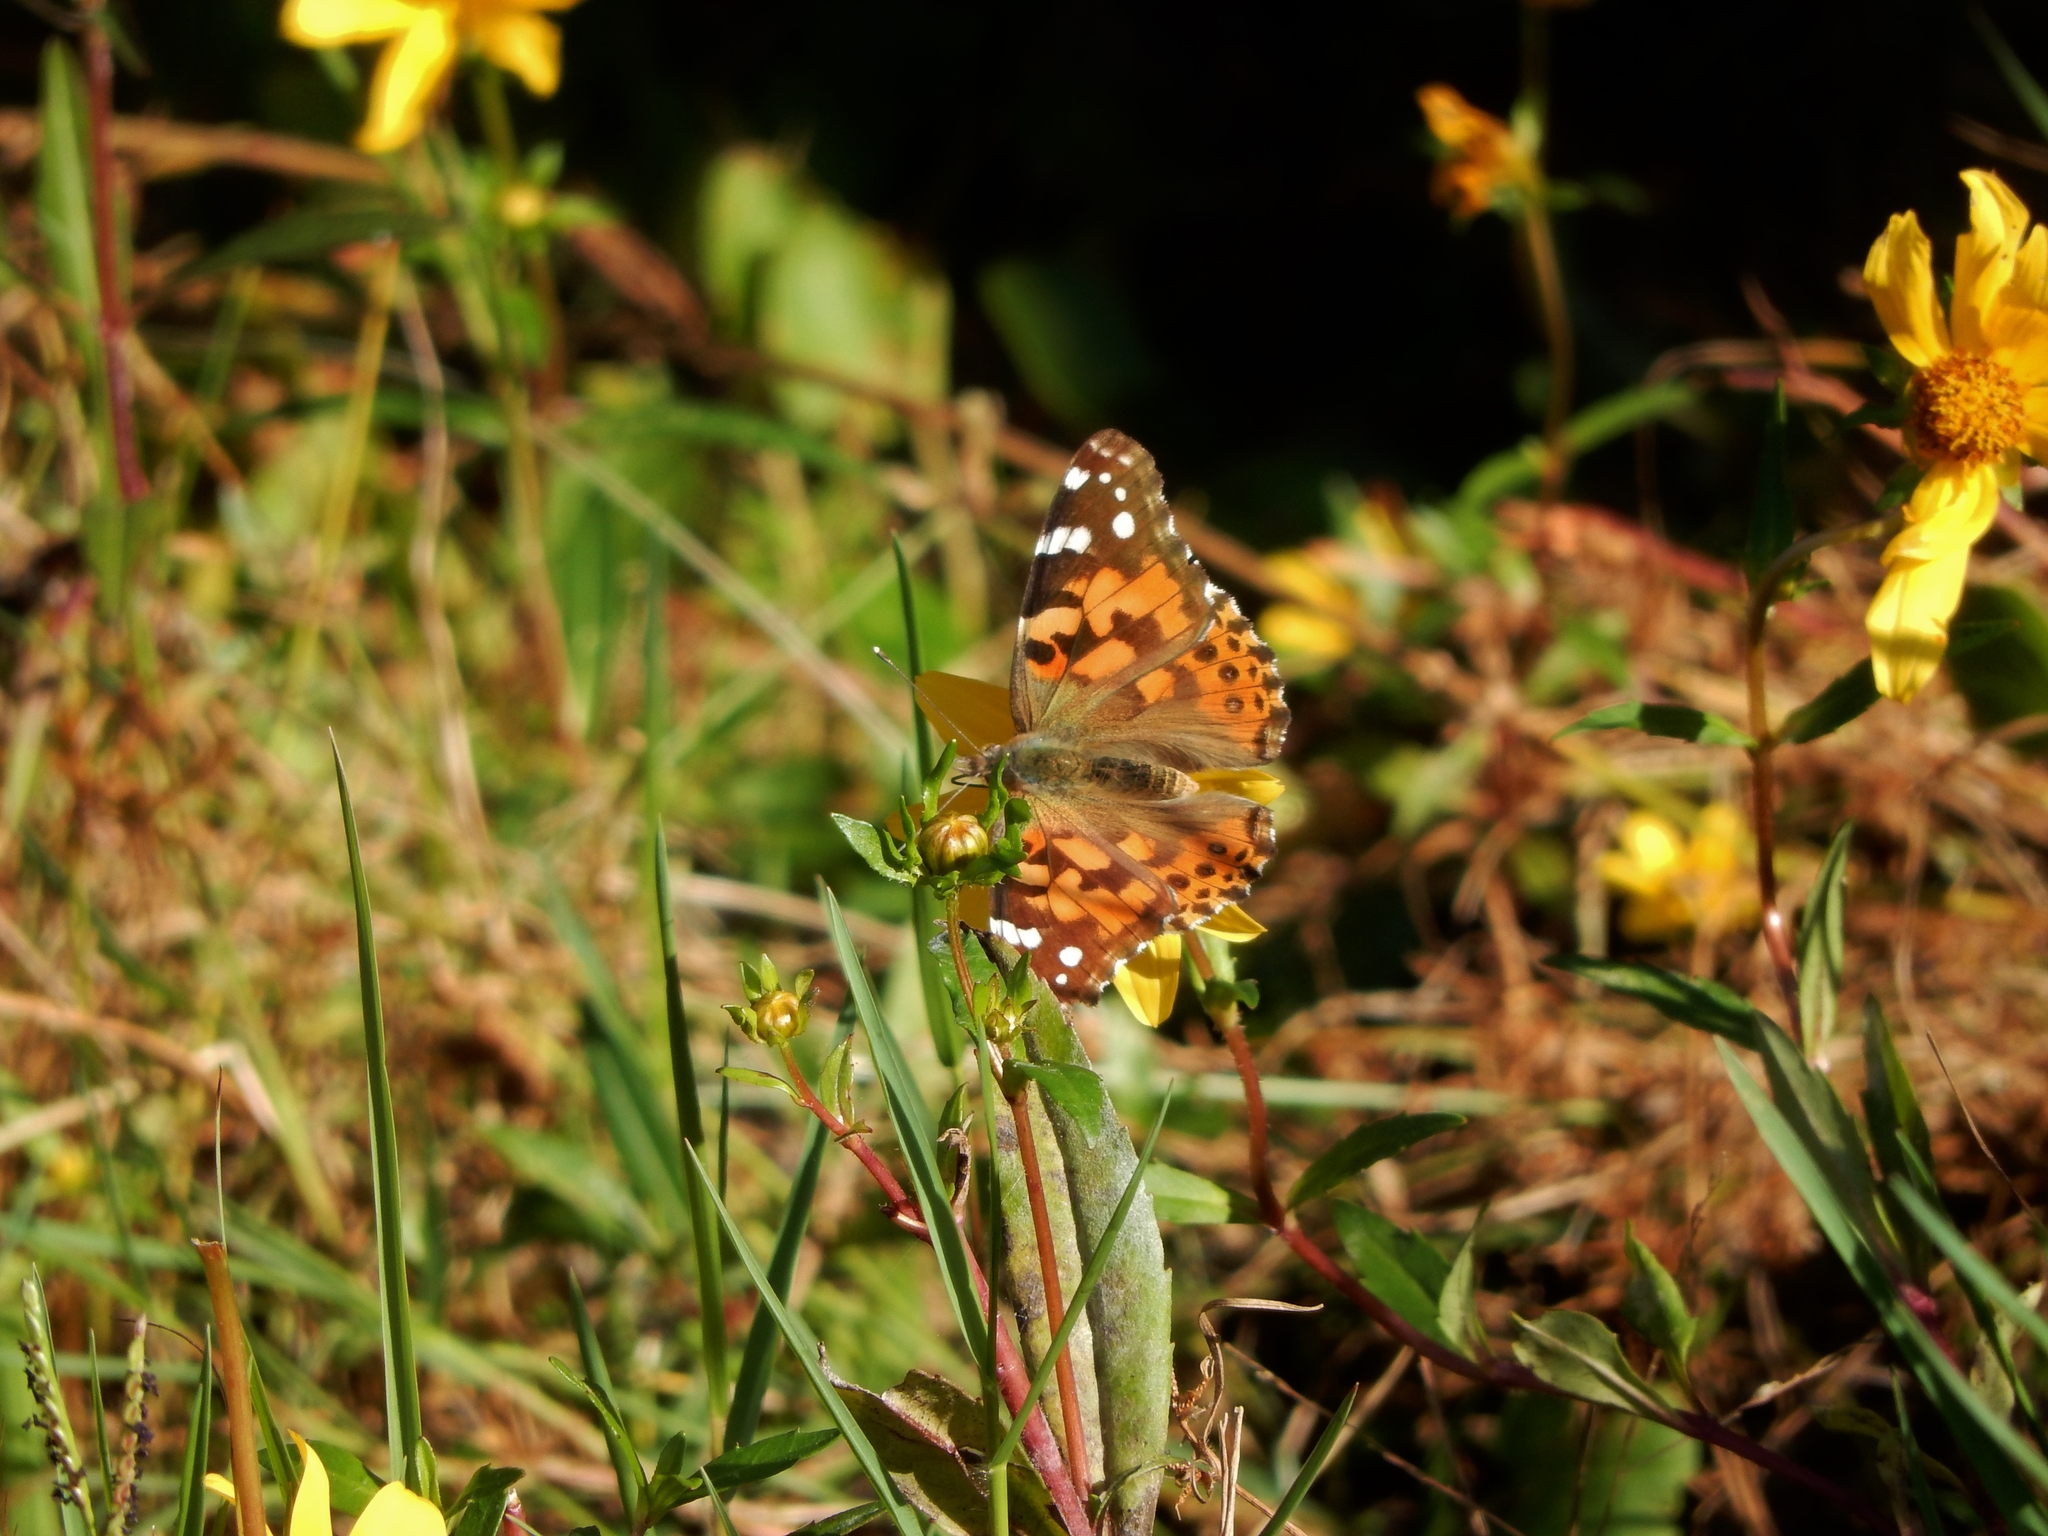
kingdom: Animalia
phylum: Arthropoda
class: Insecta
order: Lepidoptera
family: Nymphalidae
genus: Vanessa
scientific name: Vanessa cardui
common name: Painted lady
